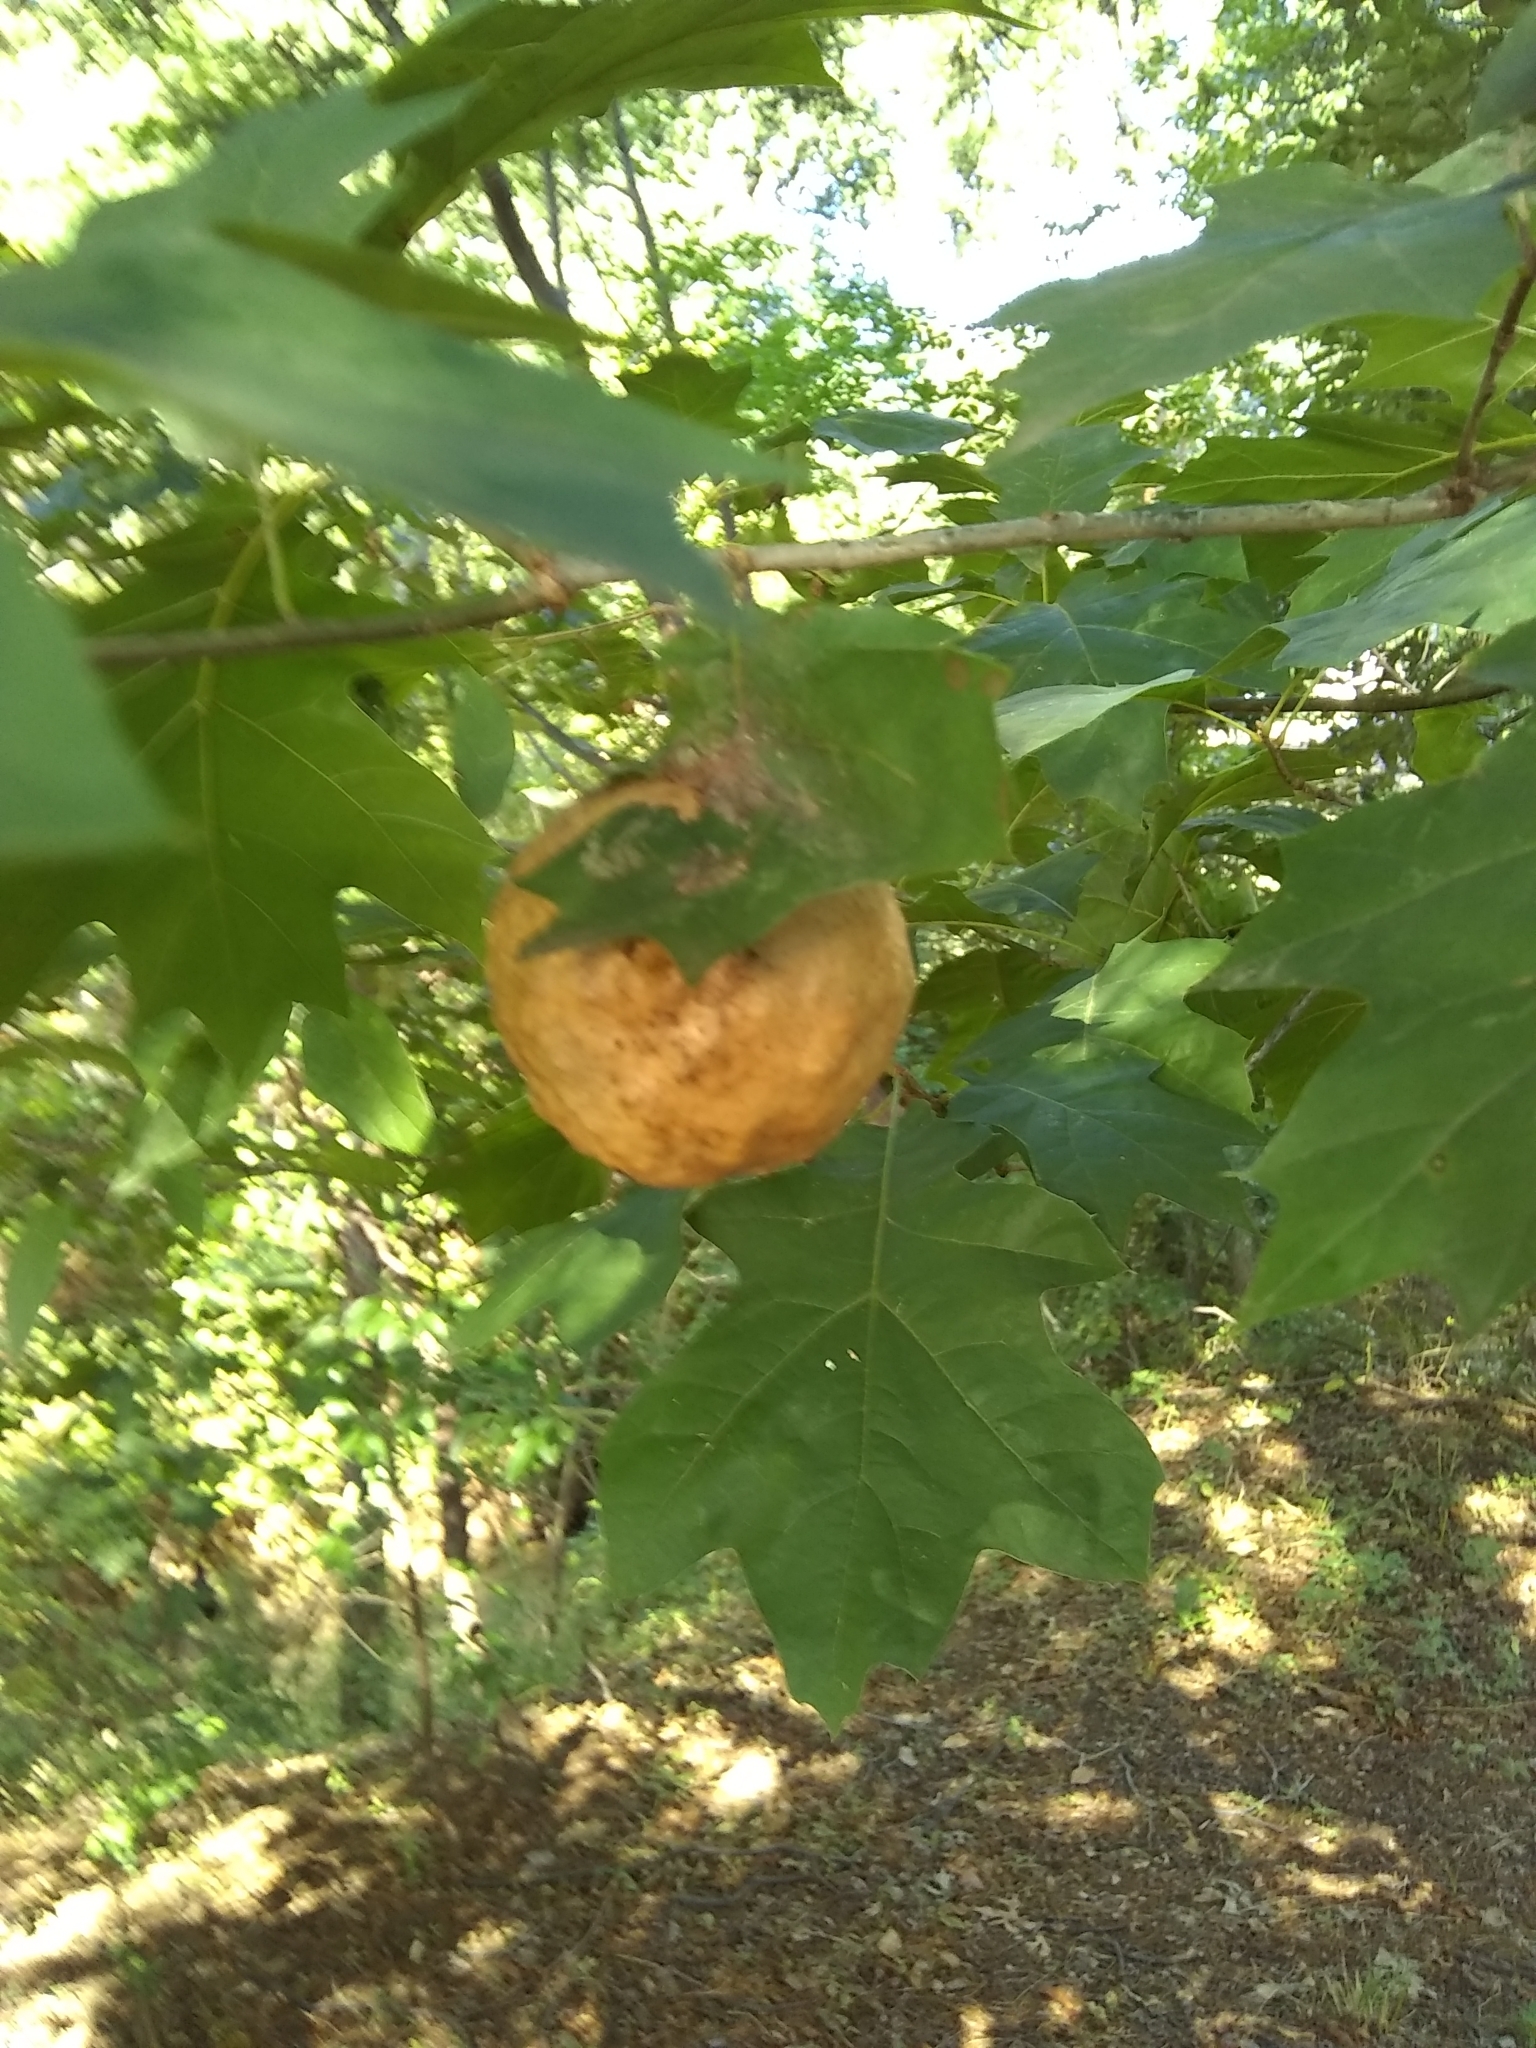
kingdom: Animalia
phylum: Arthropoda
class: Insecta
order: Hymenoptera
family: Cynipidae
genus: Amphibolips
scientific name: Amphibolips
